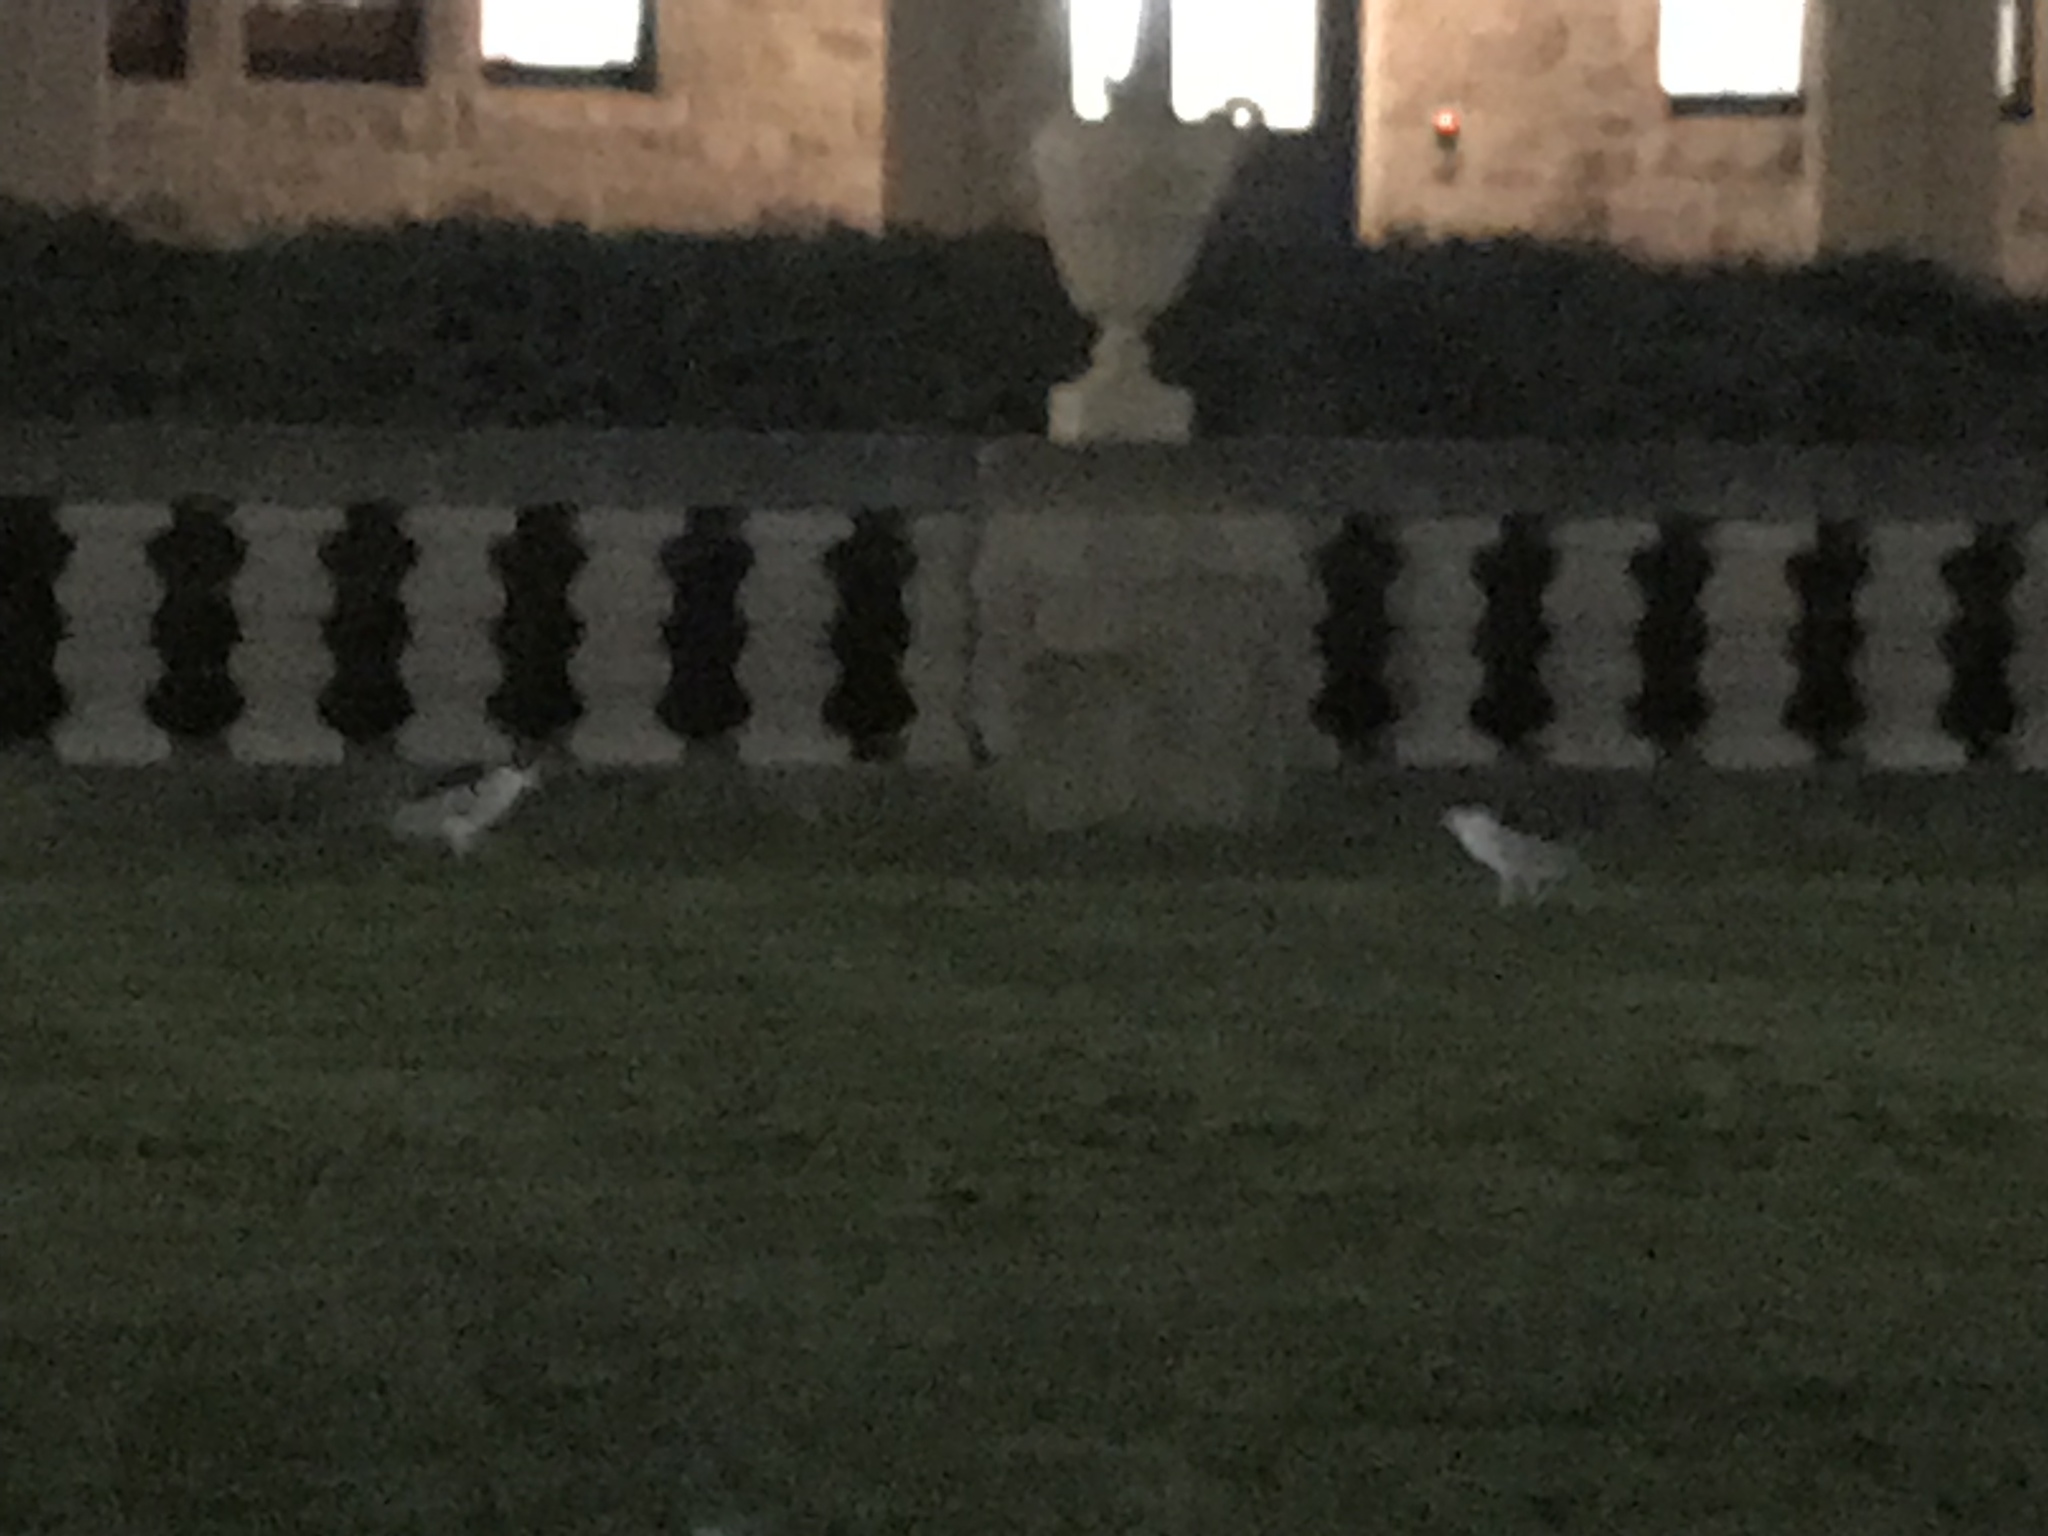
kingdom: Animalia
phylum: Chordata
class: Aves
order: Pelecaniformes
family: Ardeidae
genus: Nycticorax
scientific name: Nycticorax nycticorax
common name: Black-crowned night heron
